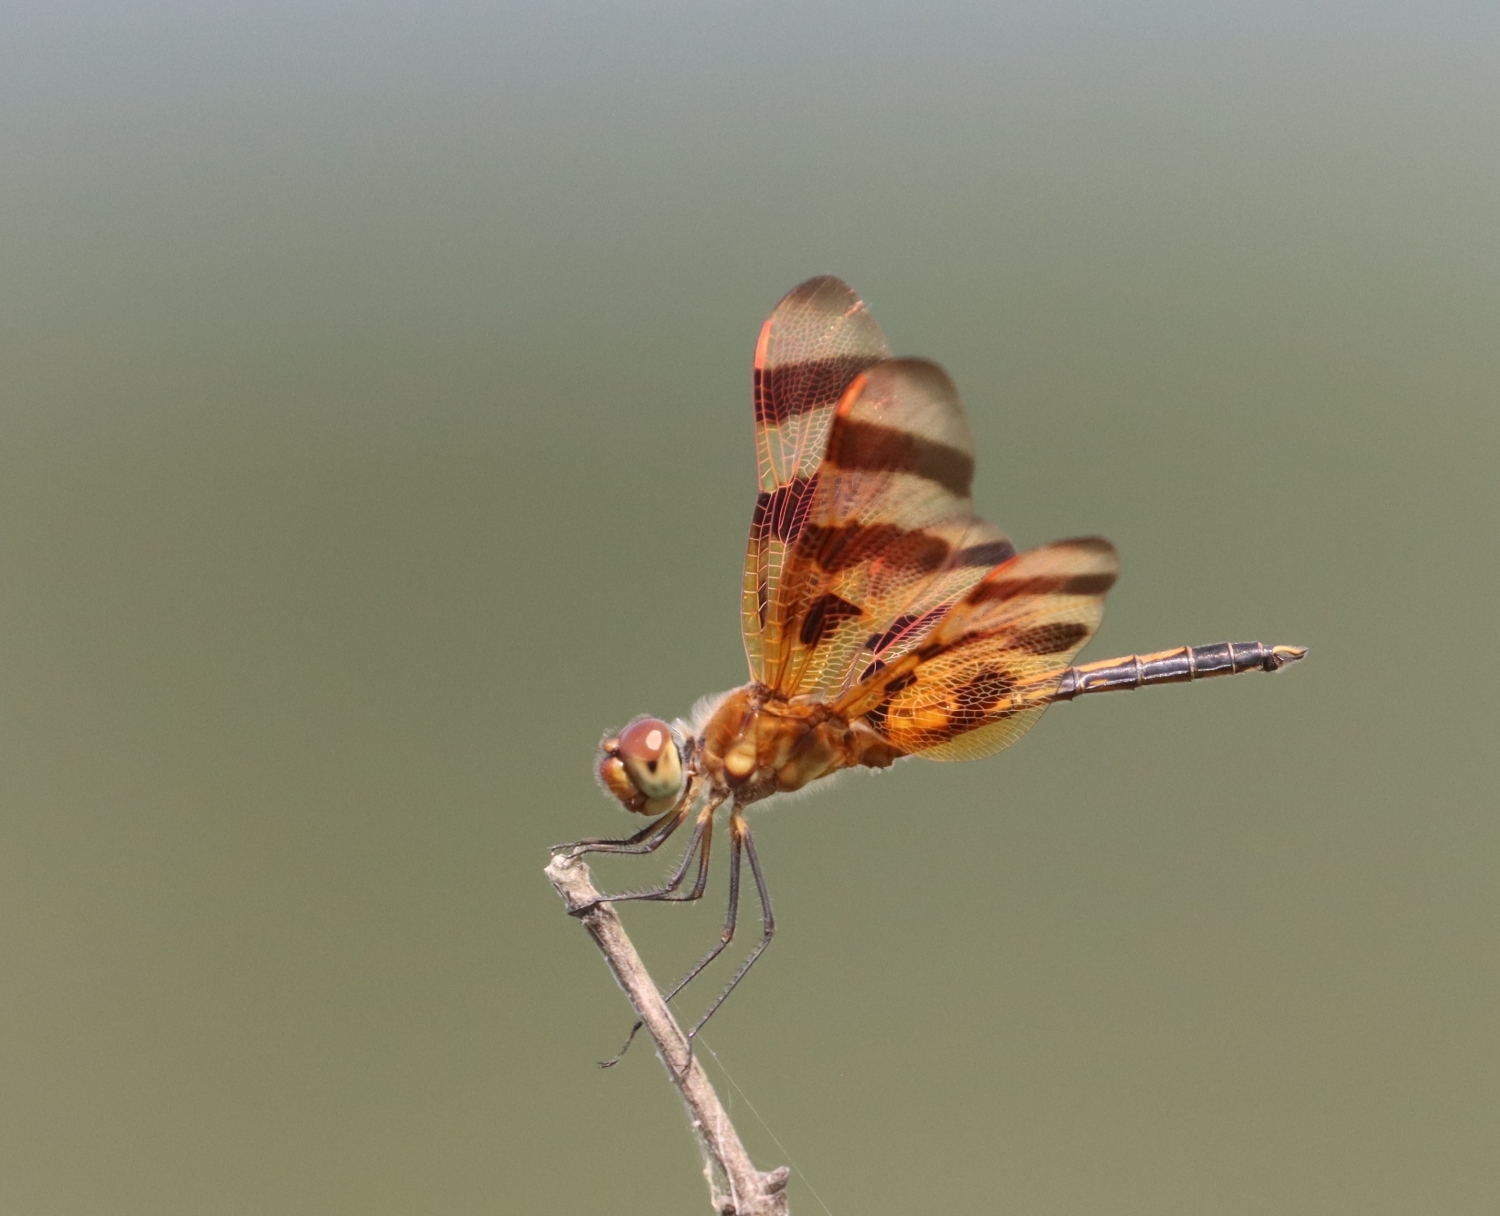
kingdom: Animalia
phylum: Arthropoda
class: Insecta
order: Odonata
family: Libellulidae
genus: Celithemis
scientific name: Celithemis eponina
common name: Halloween pennant
